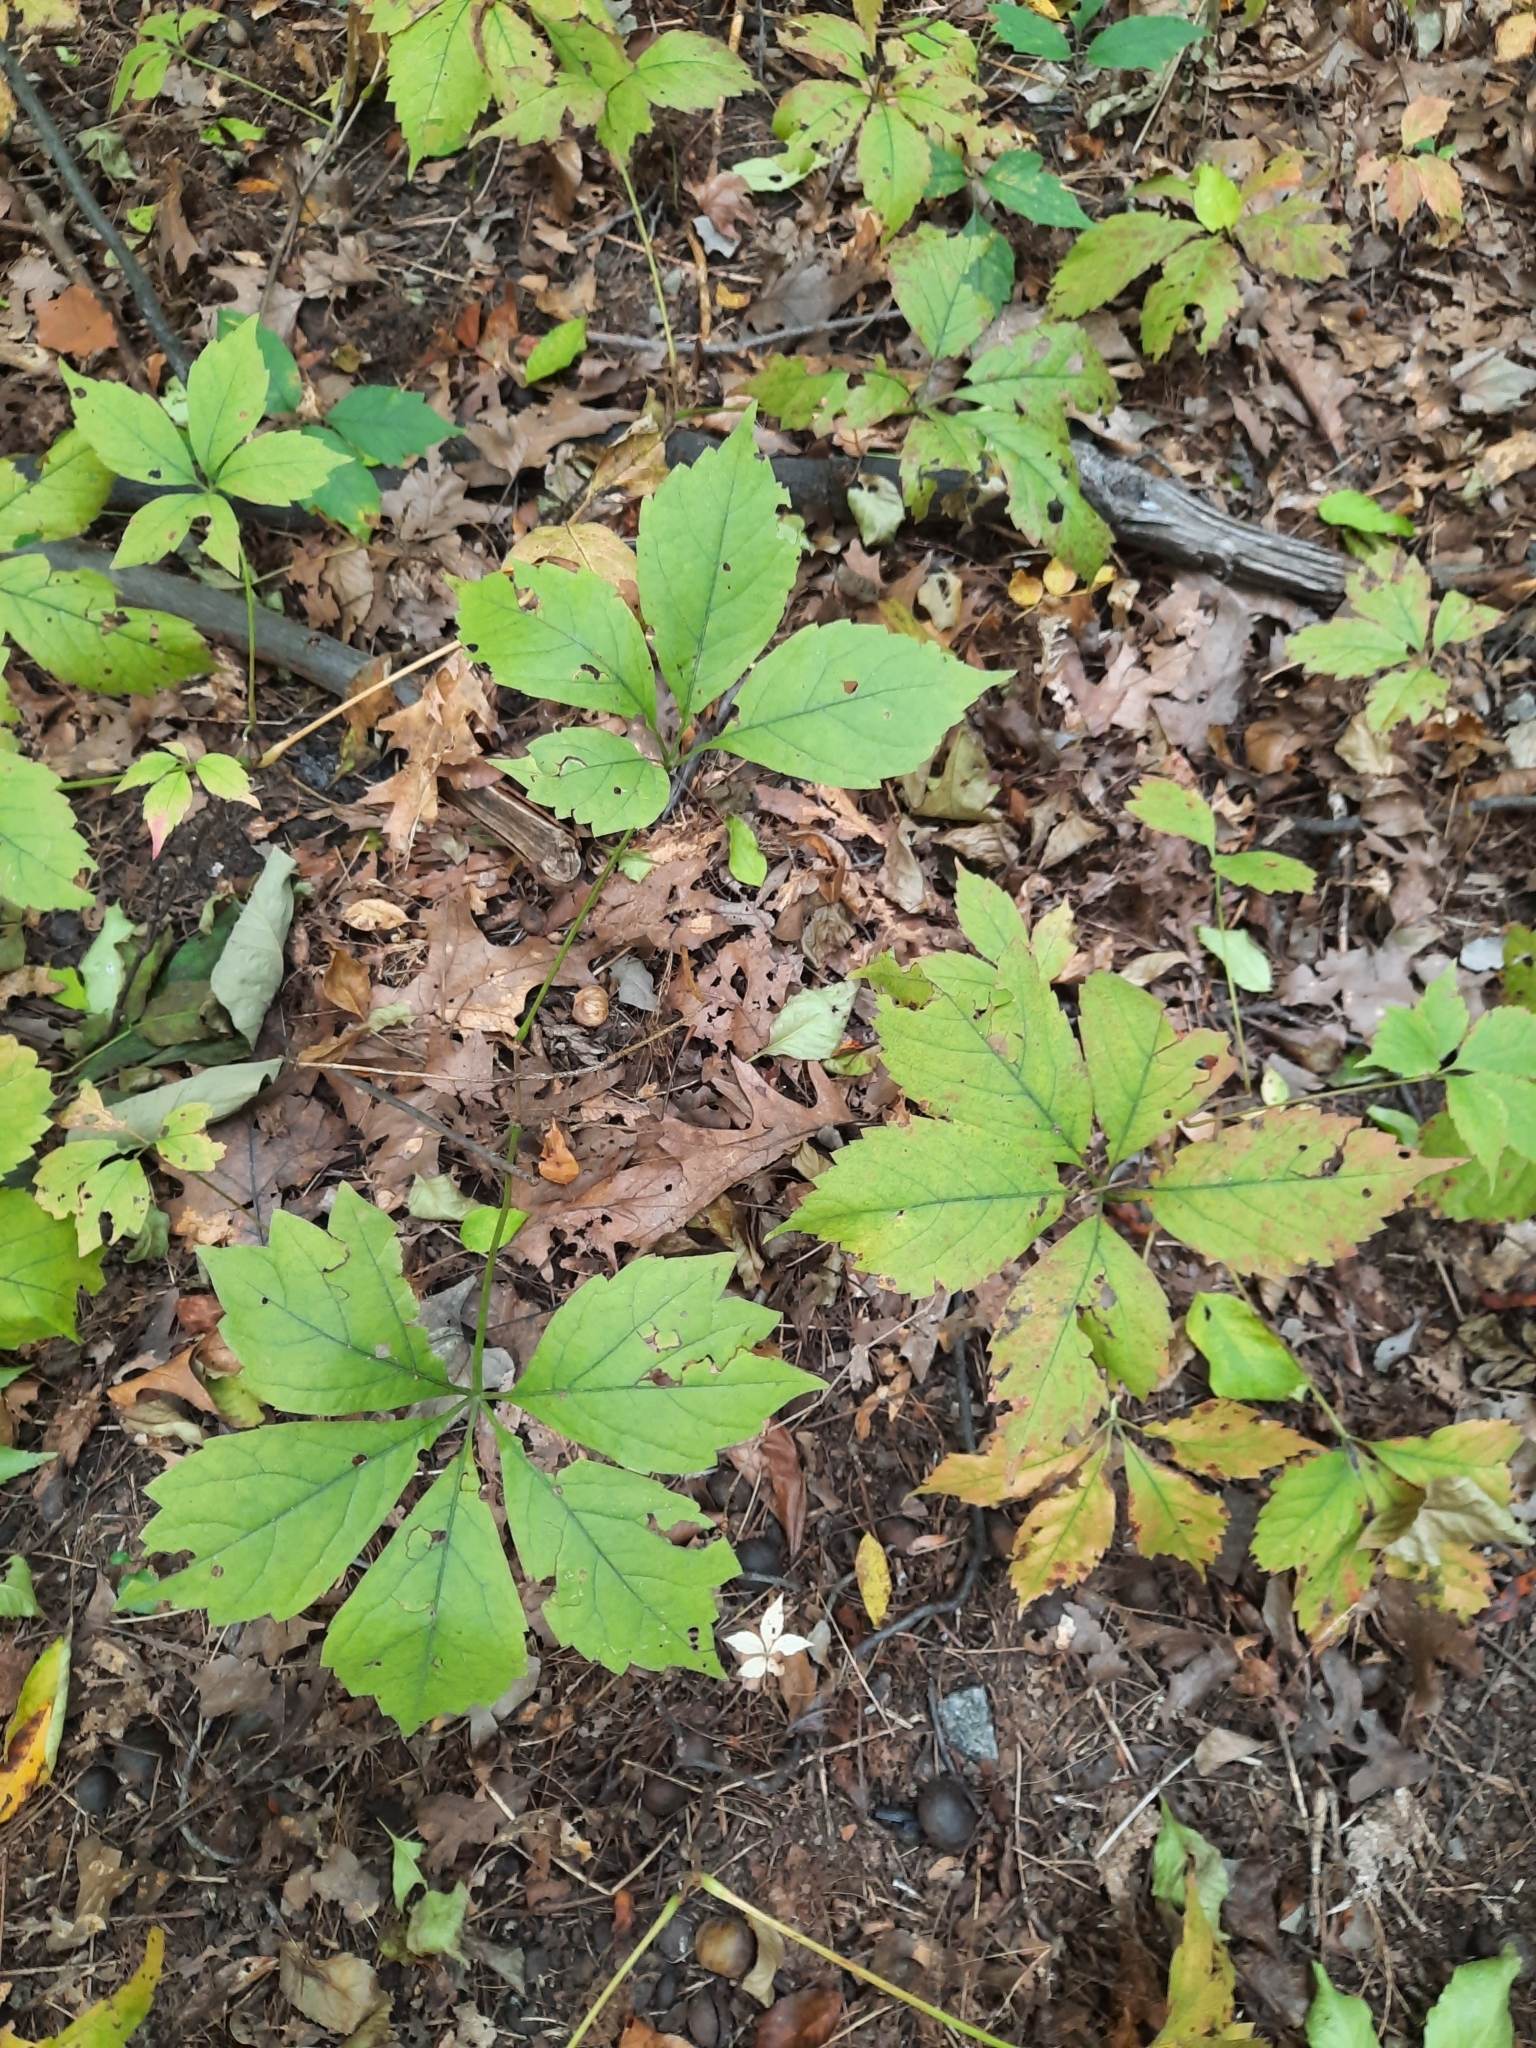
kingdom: Plantae
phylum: Tracheophyta
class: Magnoliopsida
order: Vitales
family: Vitaceae
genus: Parthenocissus
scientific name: Parthenocissus quinquefolia
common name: Virginia-creeper
